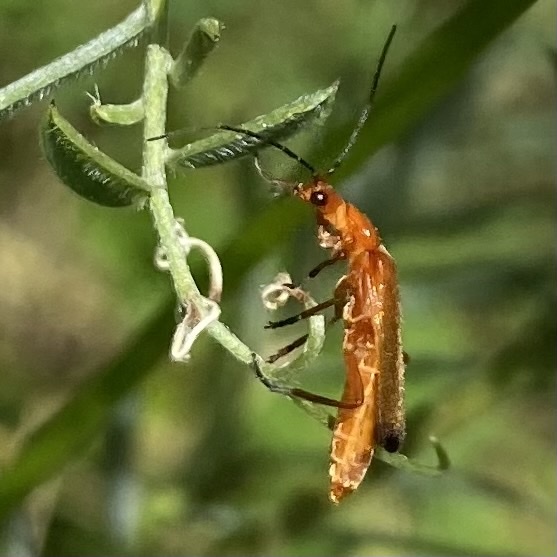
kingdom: Animalia
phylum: Arthropoda
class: Insecta
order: Coleoptera
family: Cantharidae
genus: Rhagonycha
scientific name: Rhagonycha fulva
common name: Common red soldier beetle
